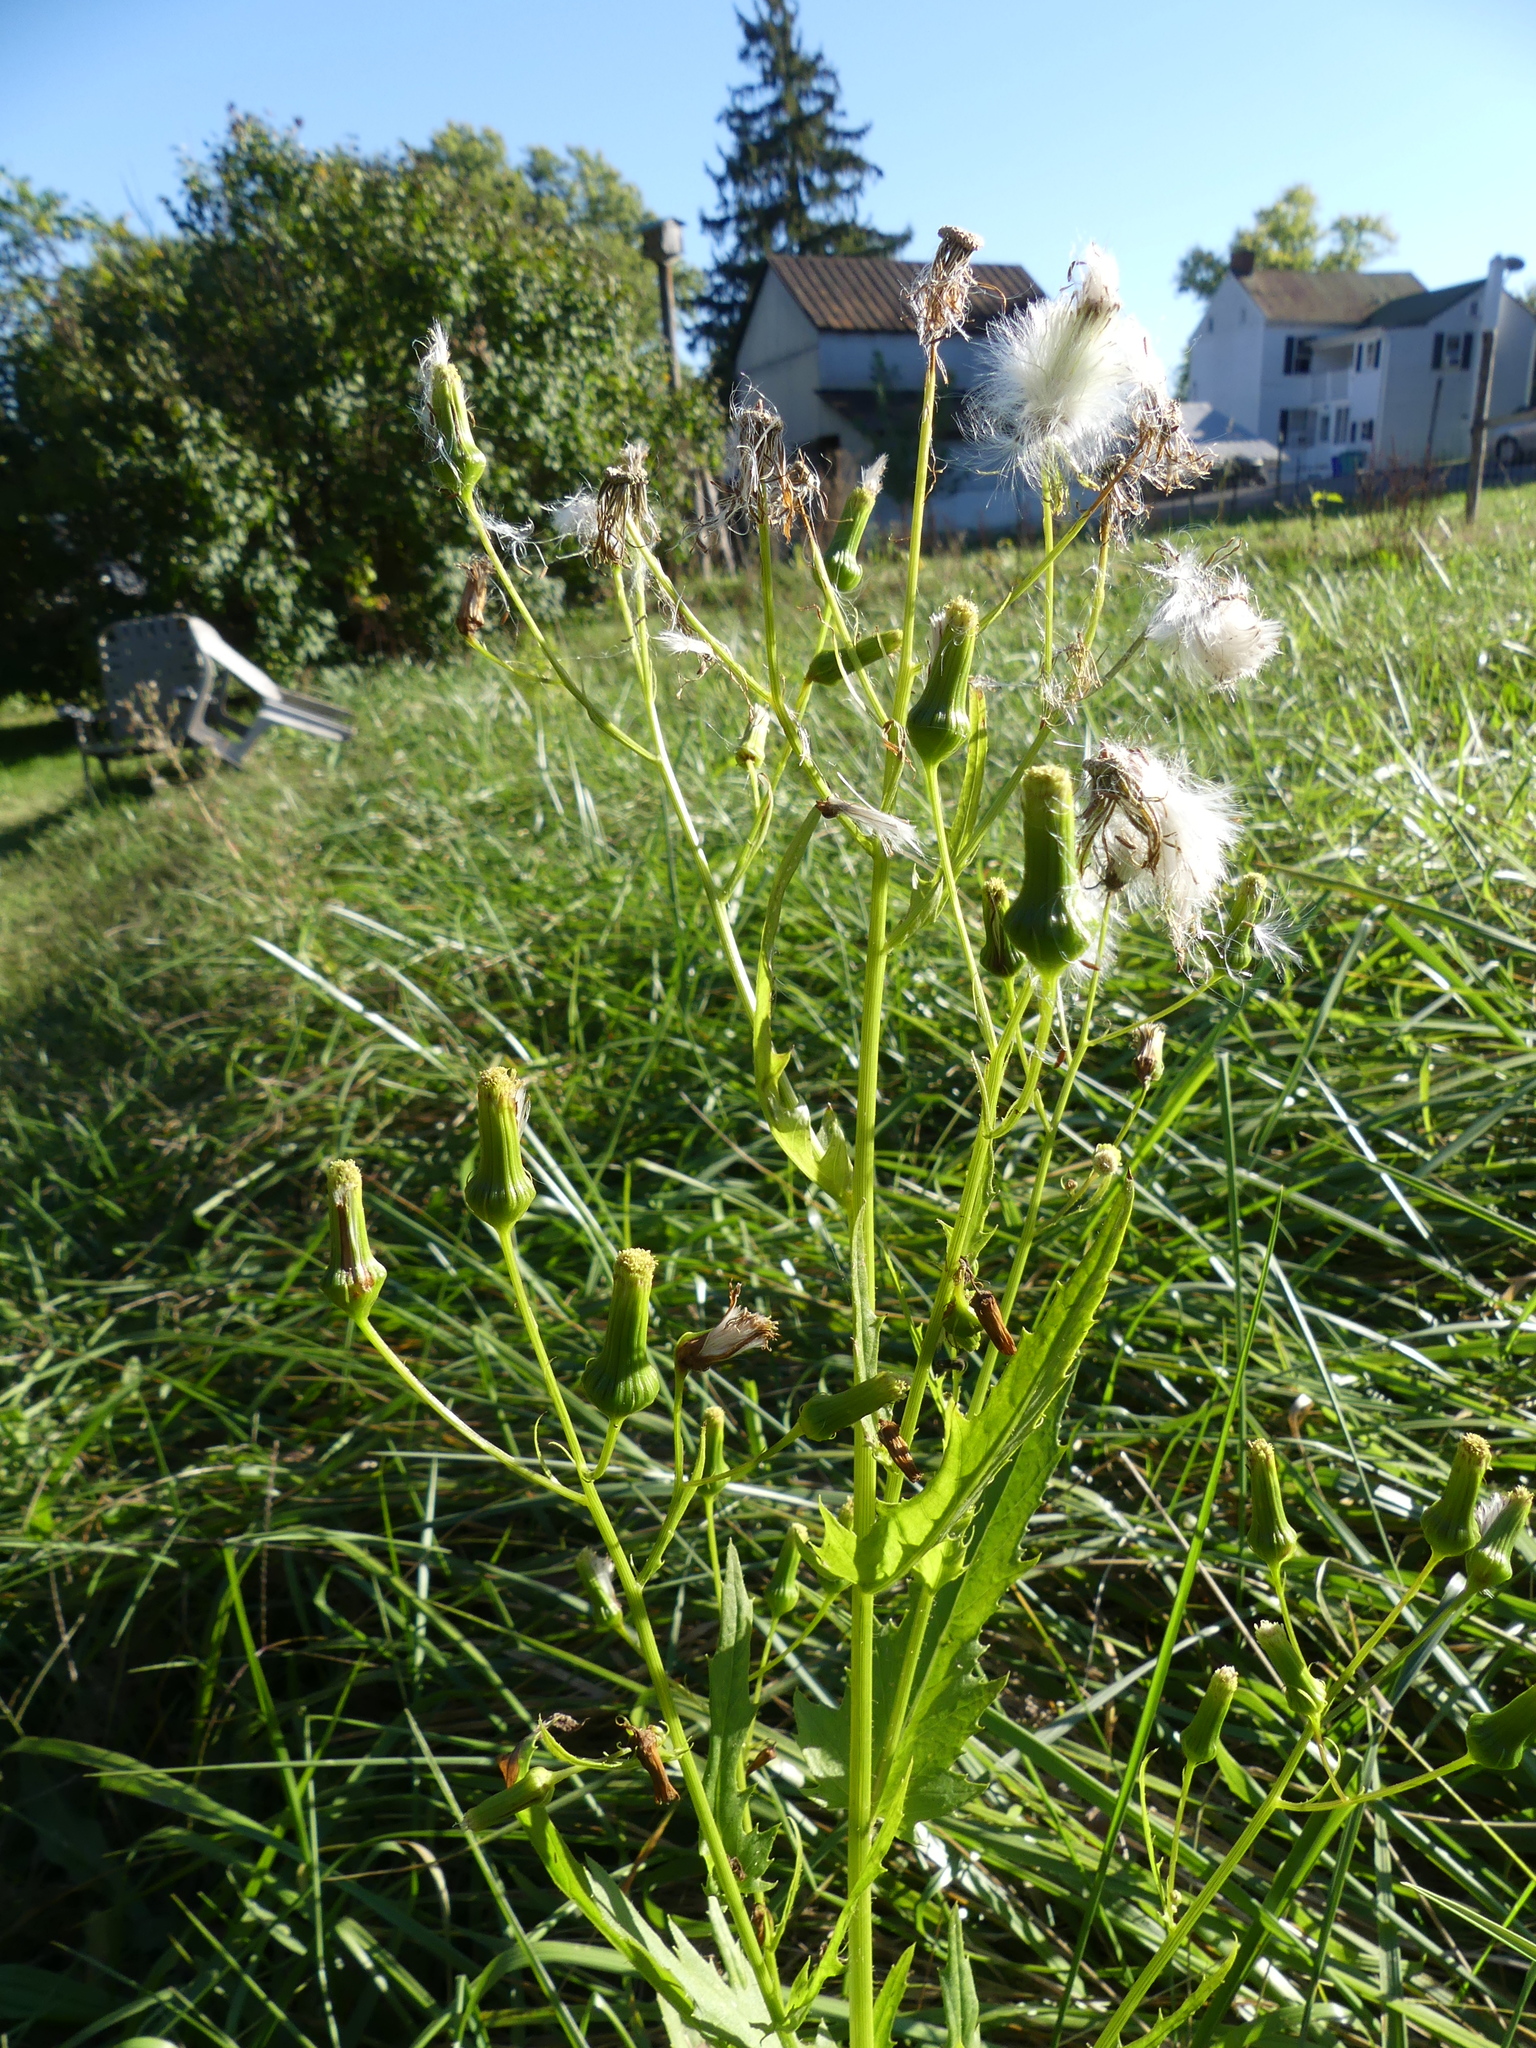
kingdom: Plantae
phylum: Tracheophyta
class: Magnoliopsida
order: Asterales
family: Asteraceae
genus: Erechtites
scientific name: Erechtites hieraciifolius
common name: American burnweed
